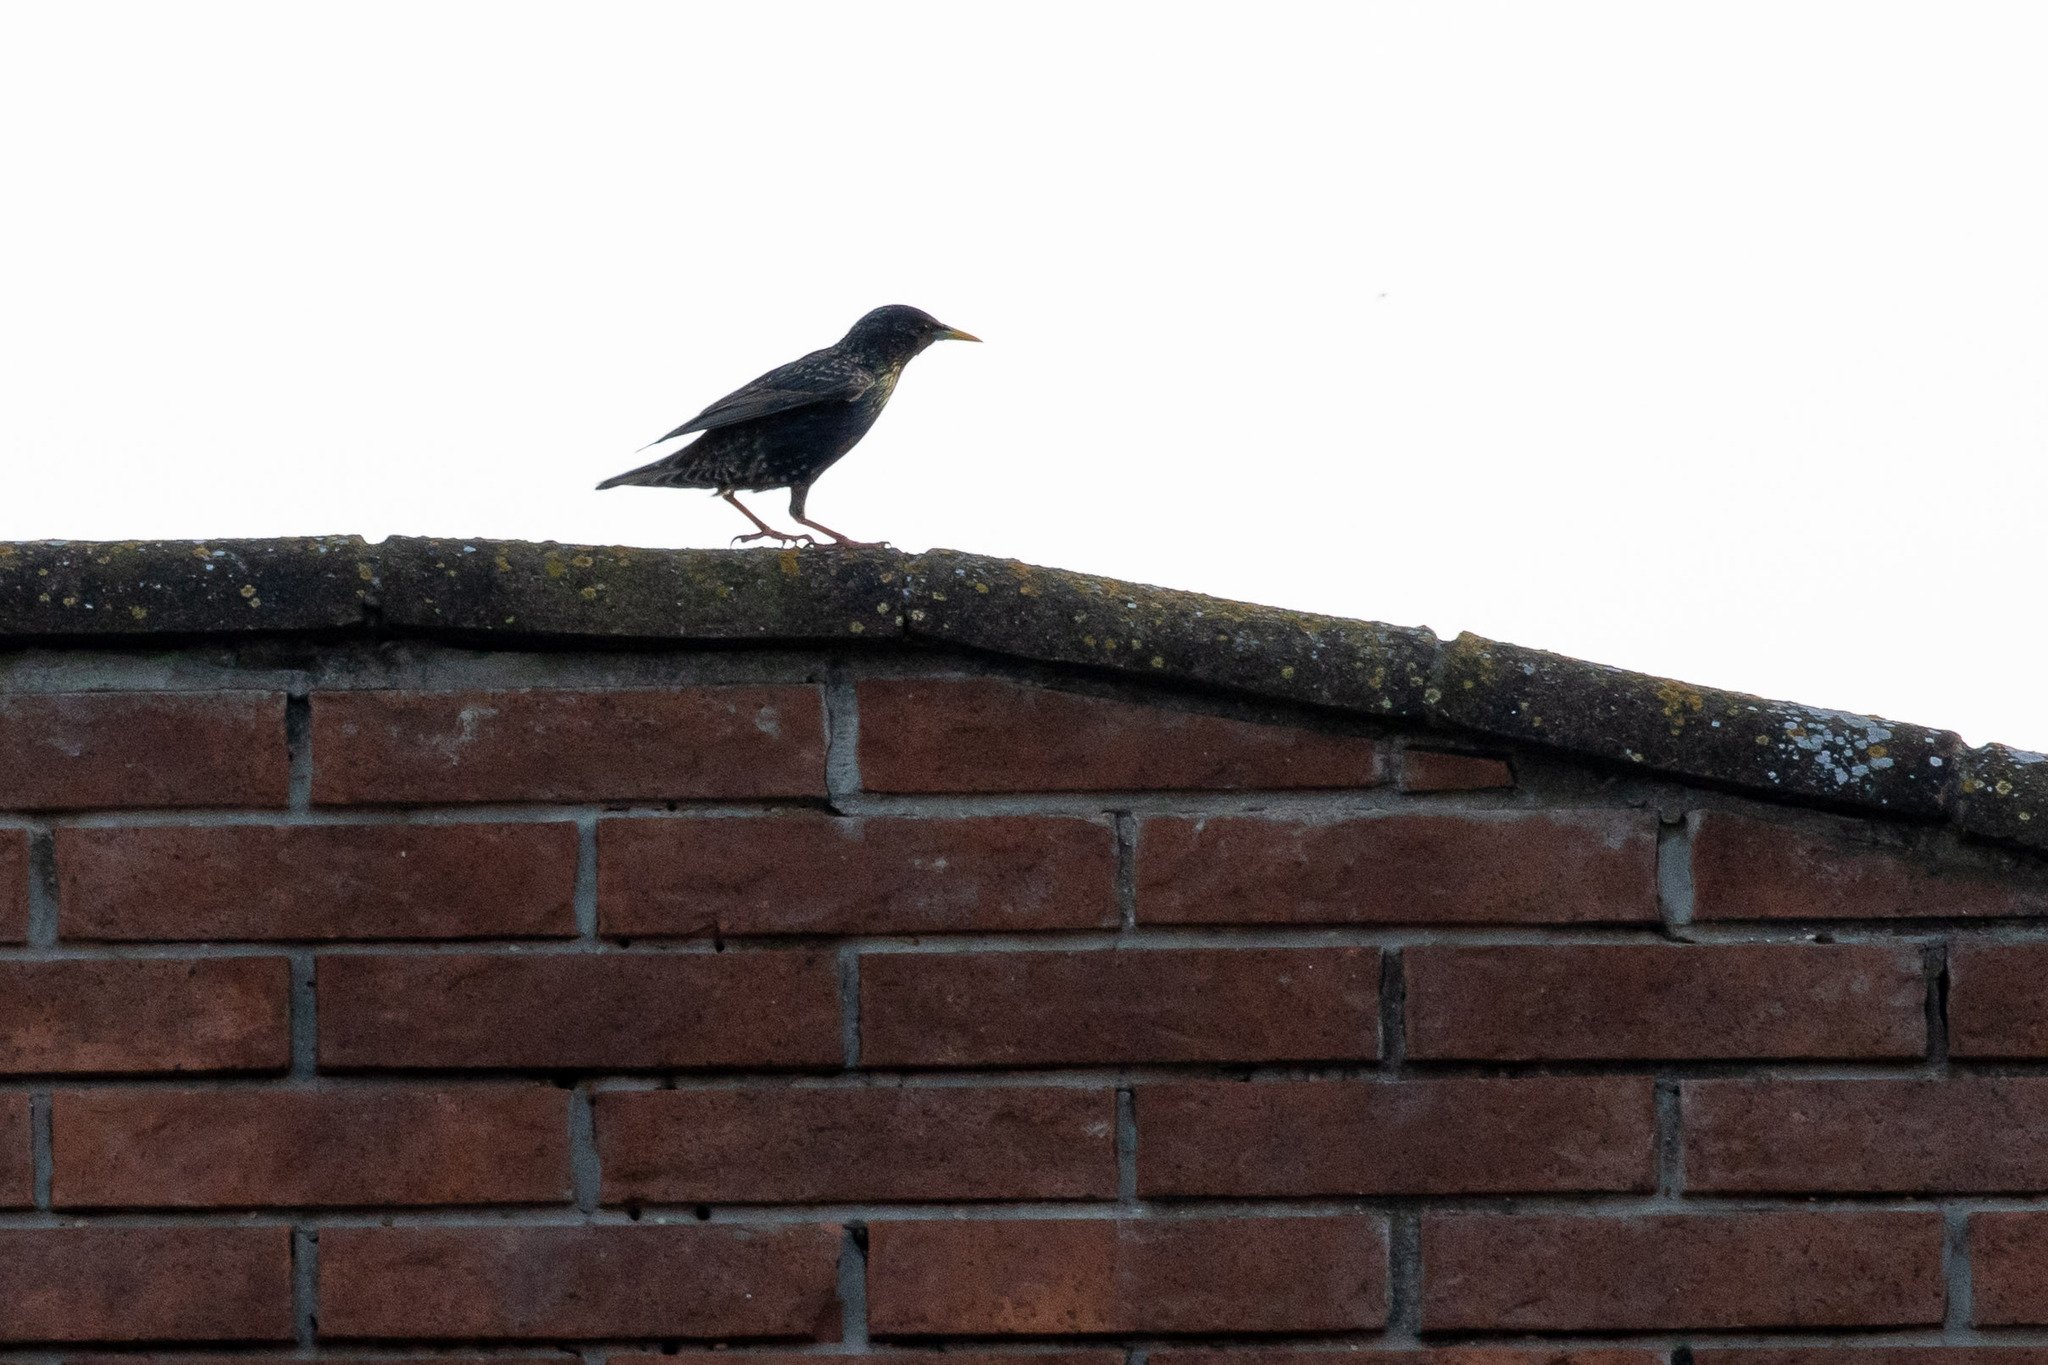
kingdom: Animalia
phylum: Chordata
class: Aves
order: Passeriformes
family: Sturnidae
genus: Sturnus
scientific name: Sturnus vulgaris
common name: Common starling
